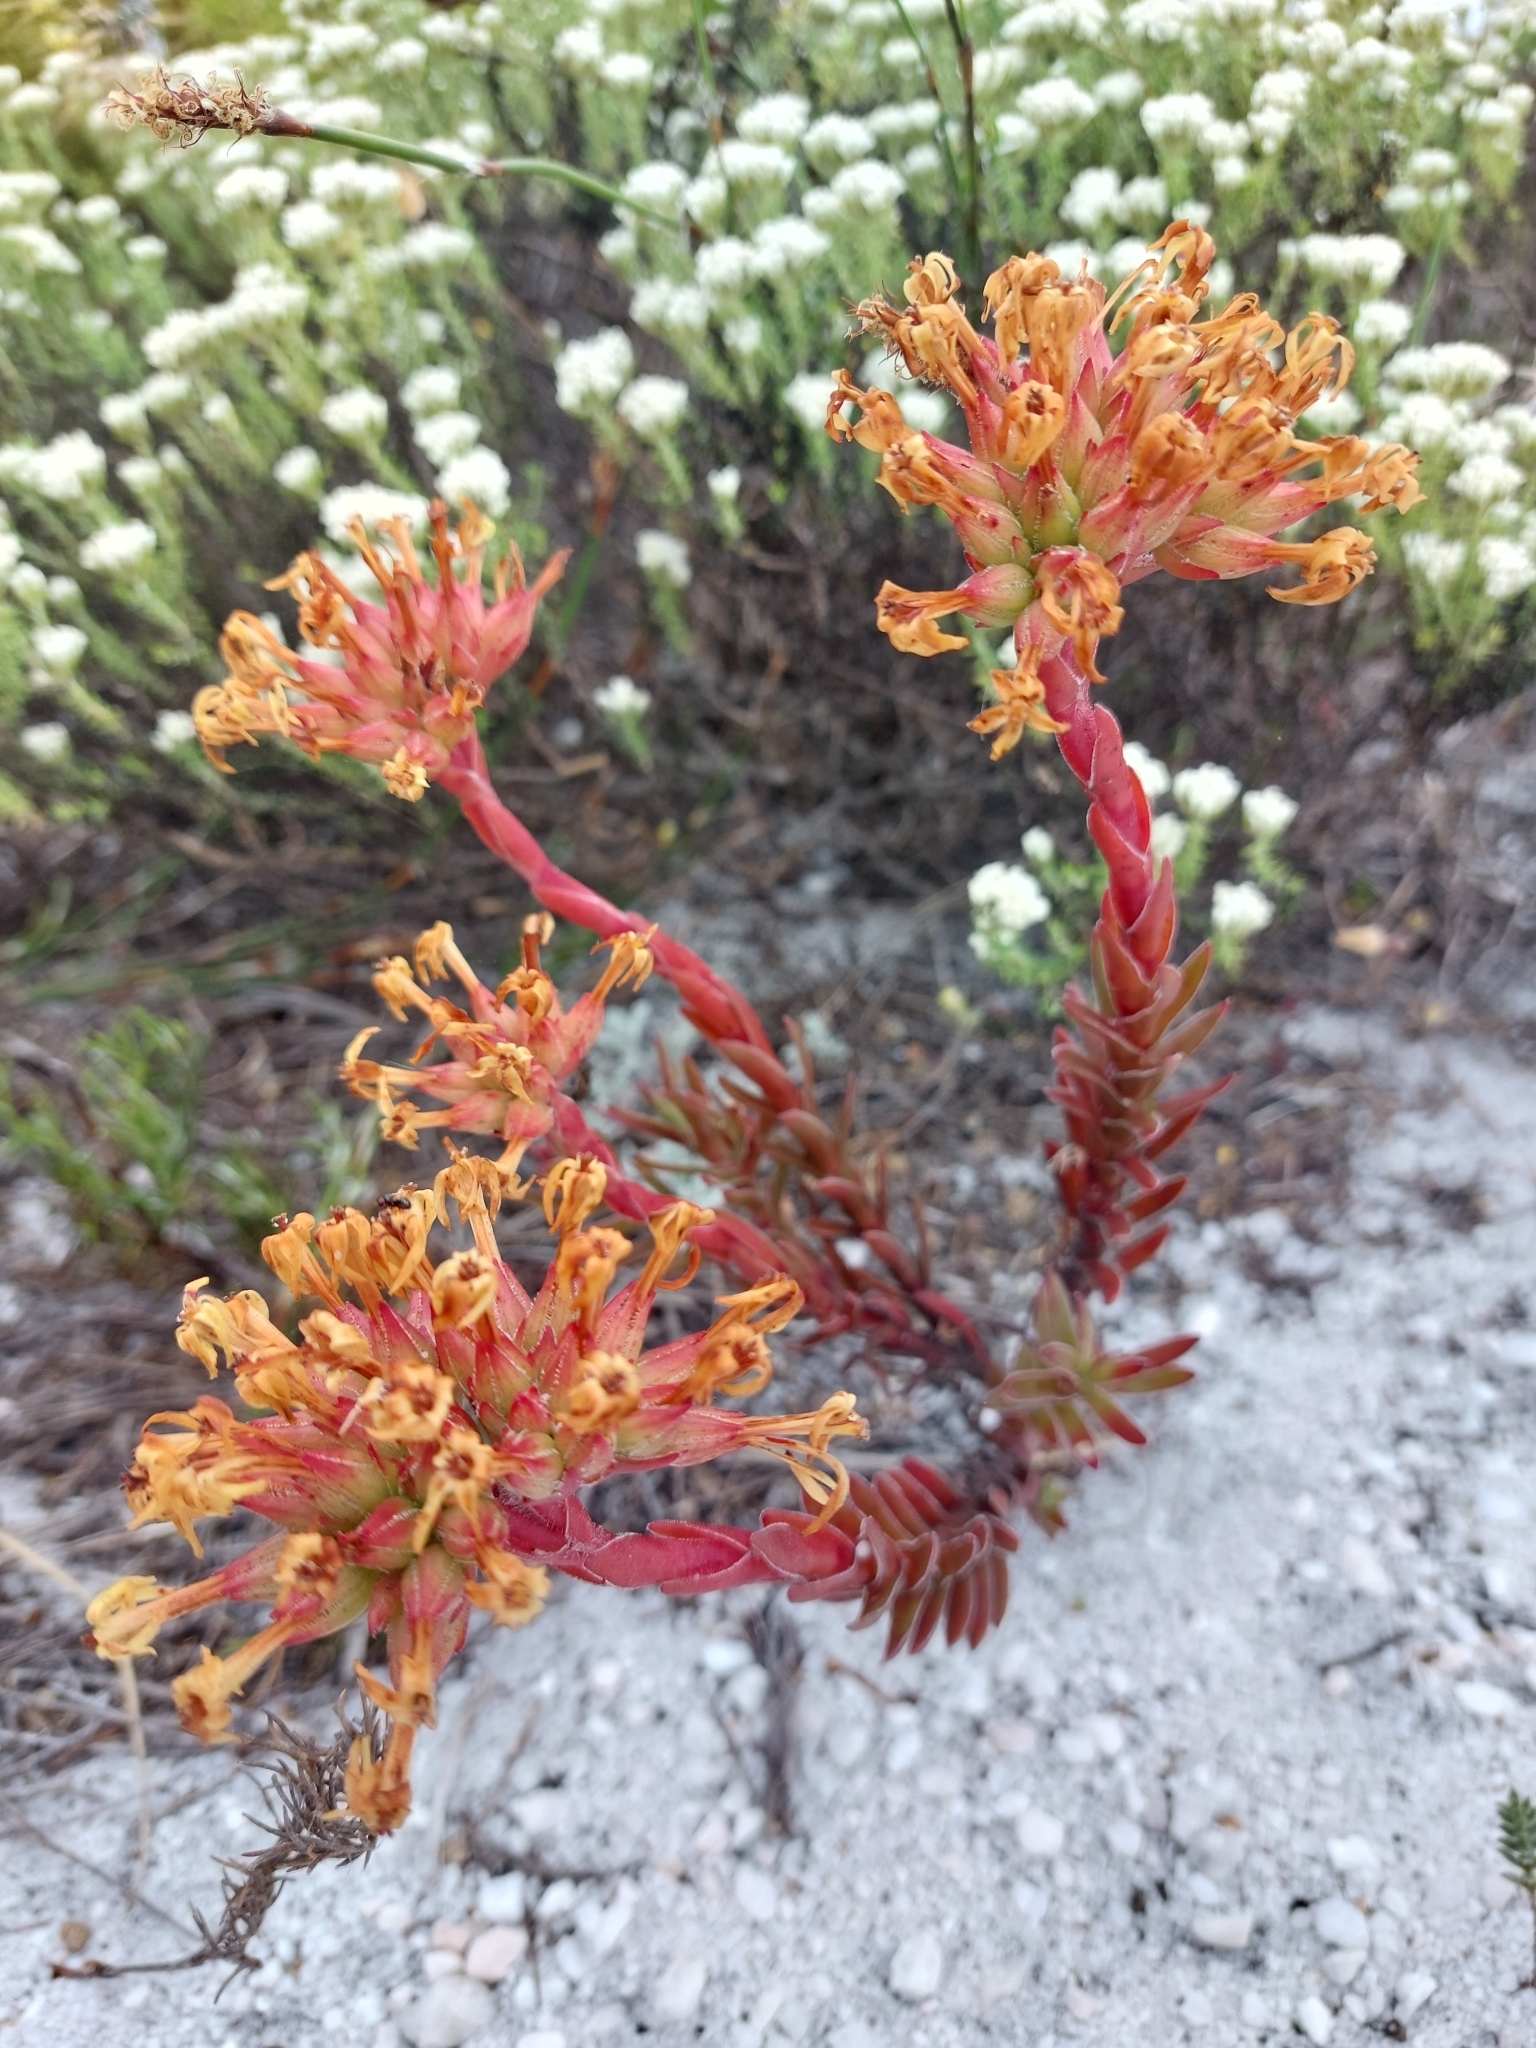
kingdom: Plantae
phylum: Tracheophyta
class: Magnoliopsida
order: Saxifragales
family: Crassulaceae
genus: Crassula
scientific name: Crassula fascicularis
